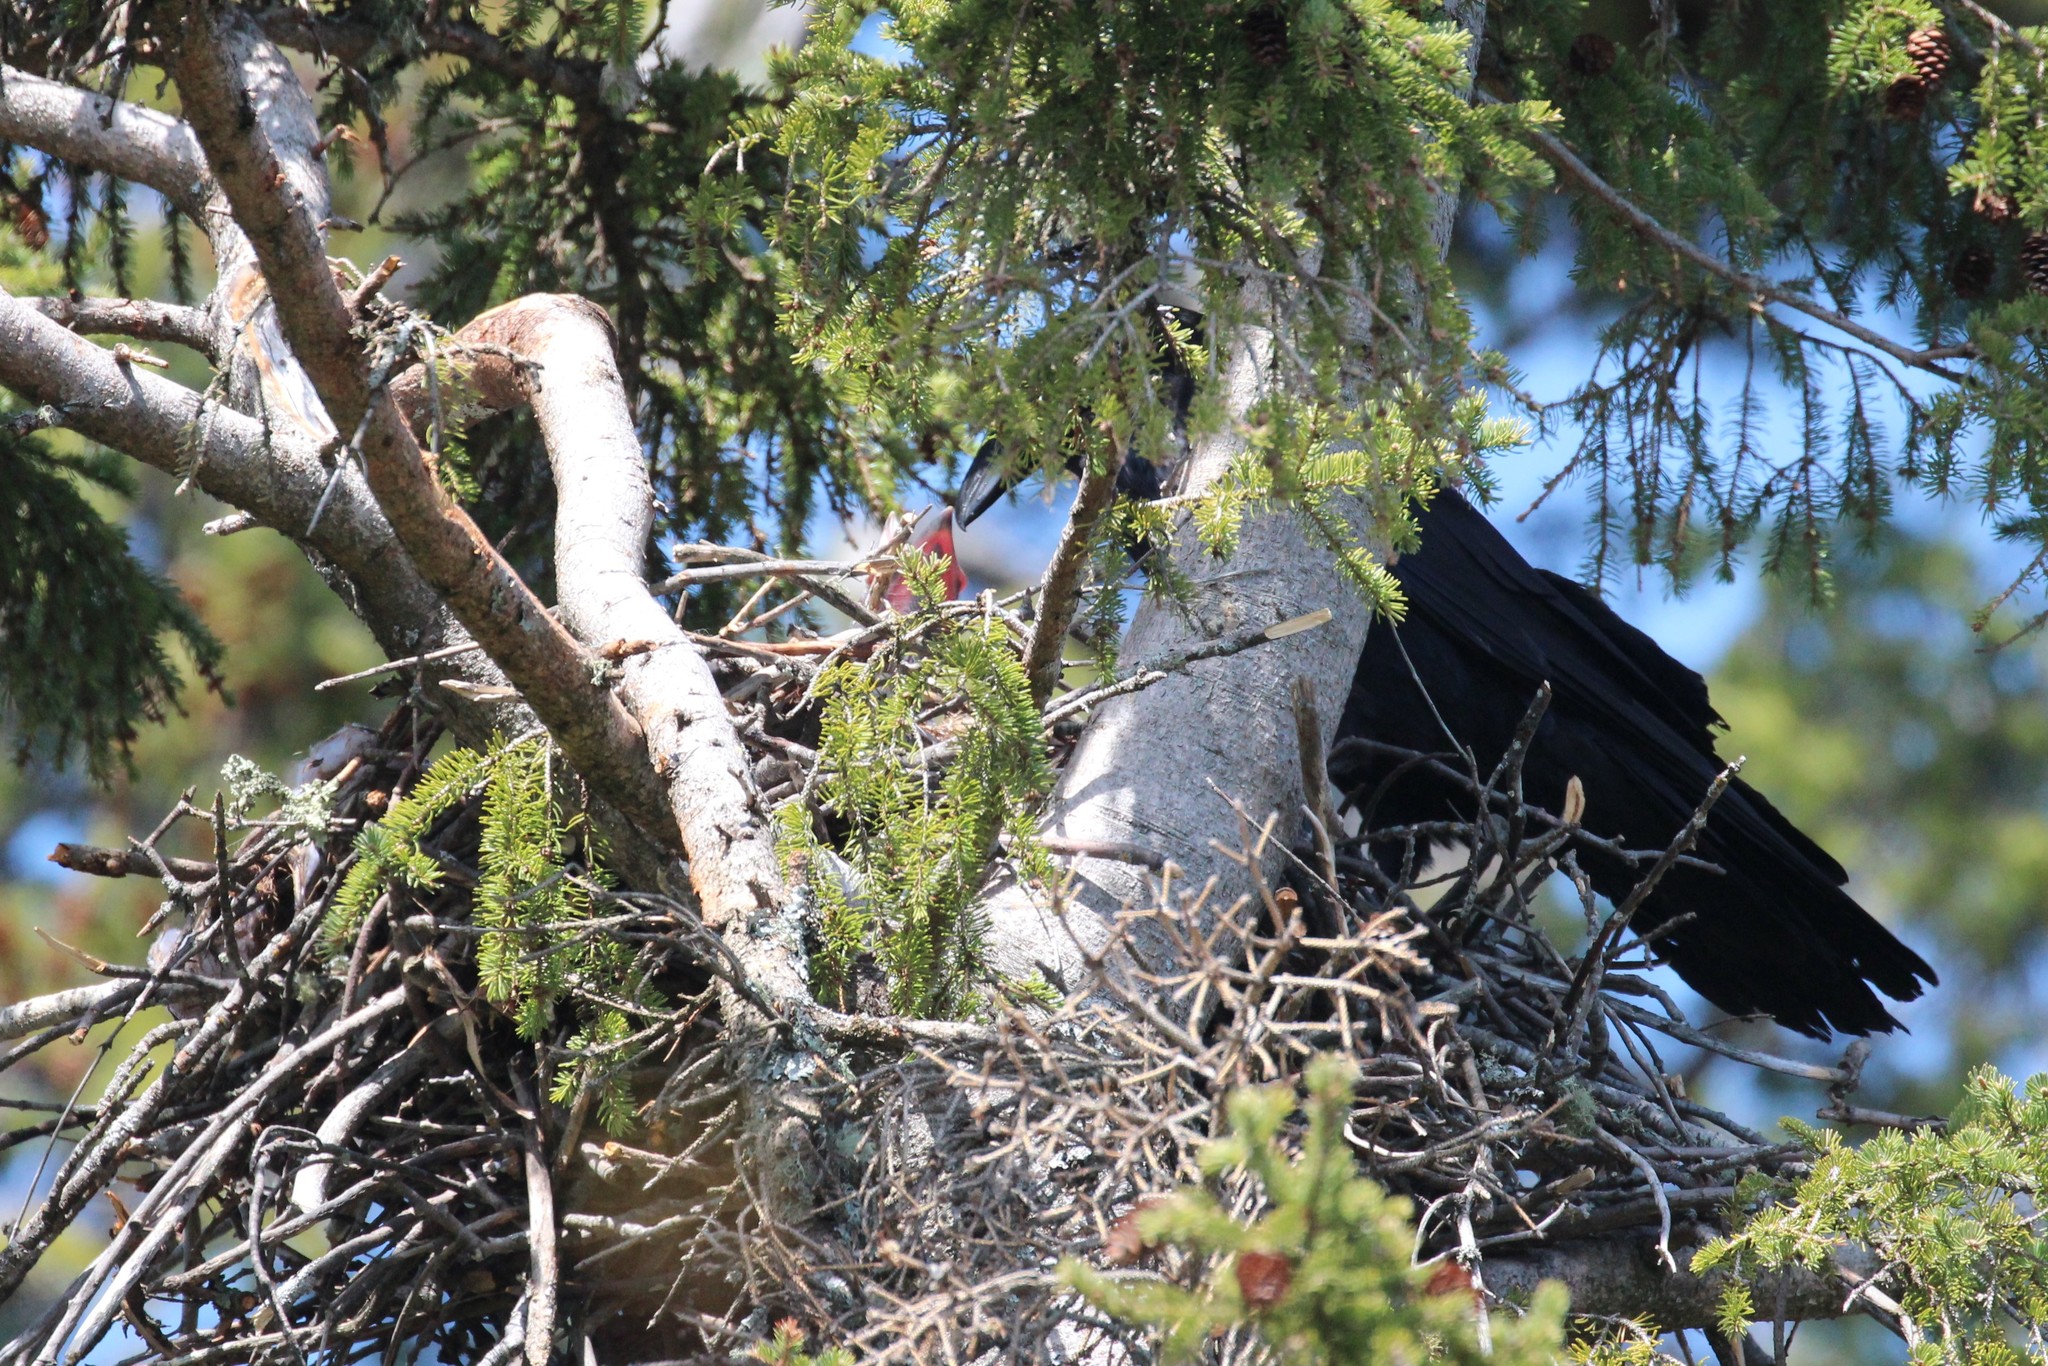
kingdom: Animalia
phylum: Chordata
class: Aves
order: Passeriformes
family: Corvidae
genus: Corvus
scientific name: Corvus corax
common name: Common raven
